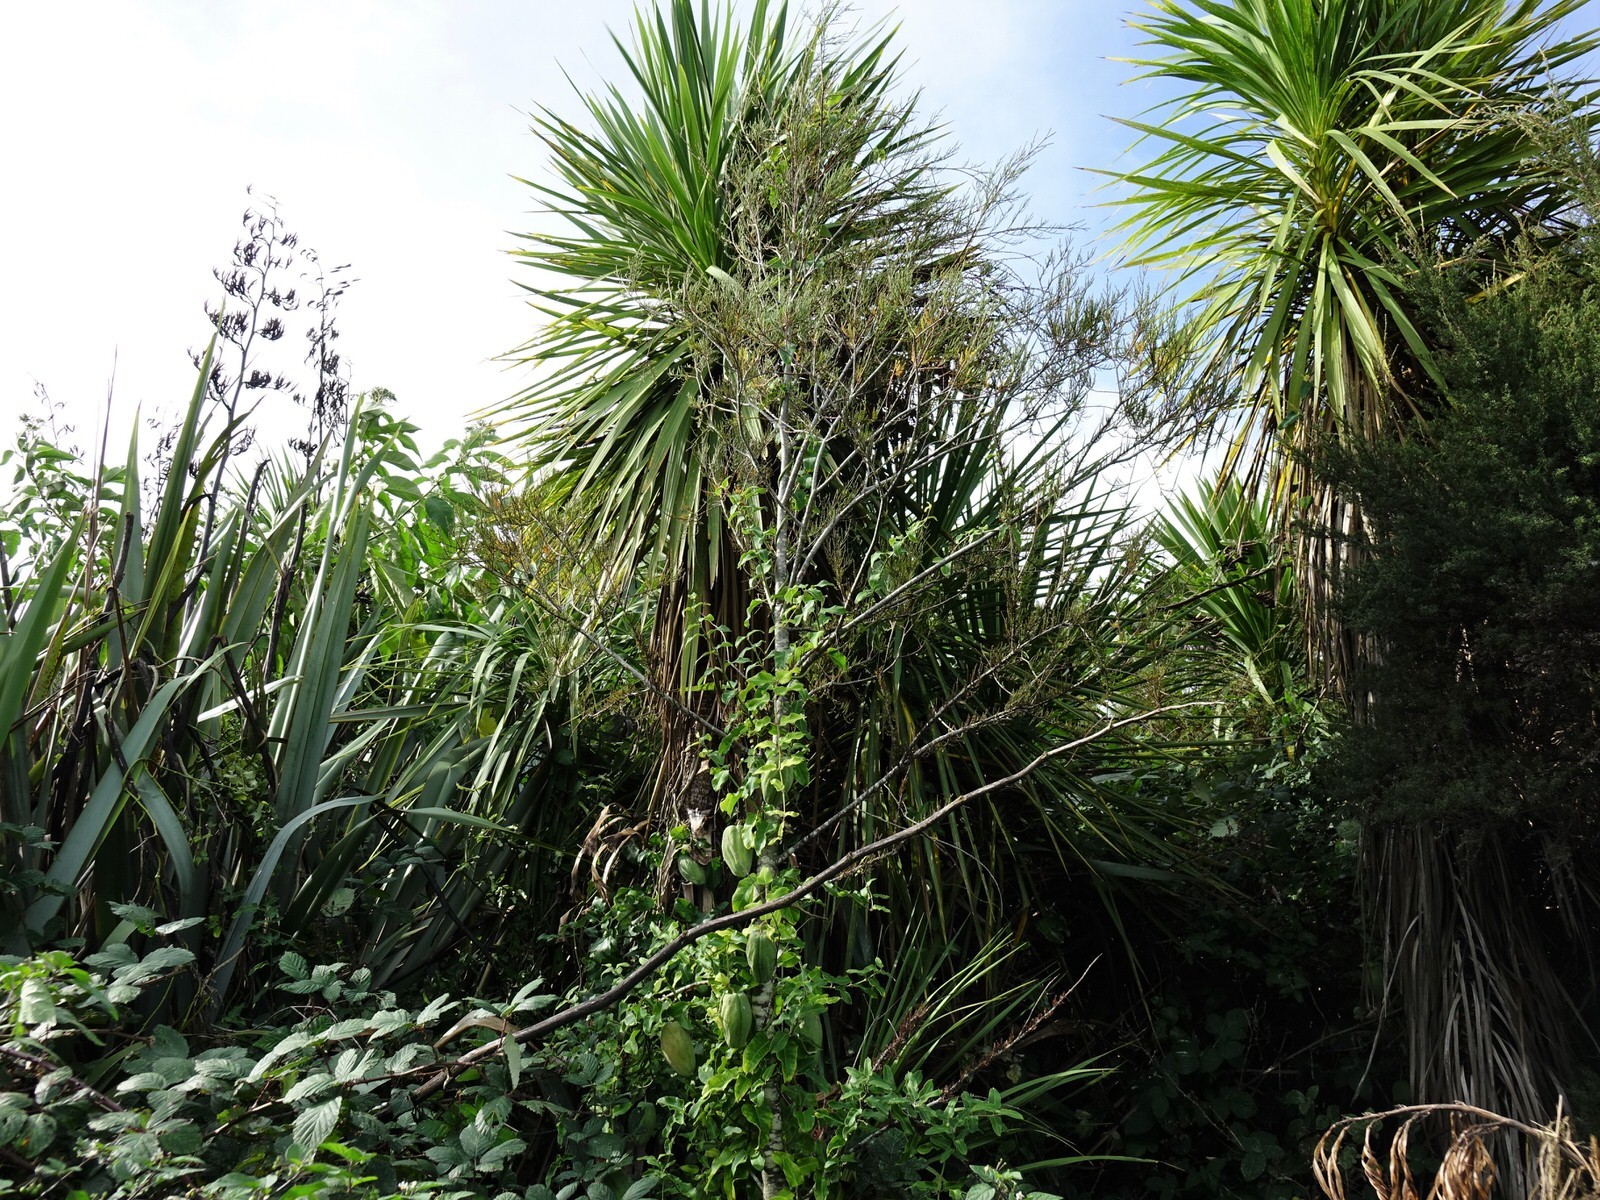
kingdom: Plantae
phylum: Tracheophyta
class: Magnoliopsida
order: Gentianales
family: Apocynaceae
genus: Araujia
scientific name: Araujia sericifera
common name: White bladderflower
